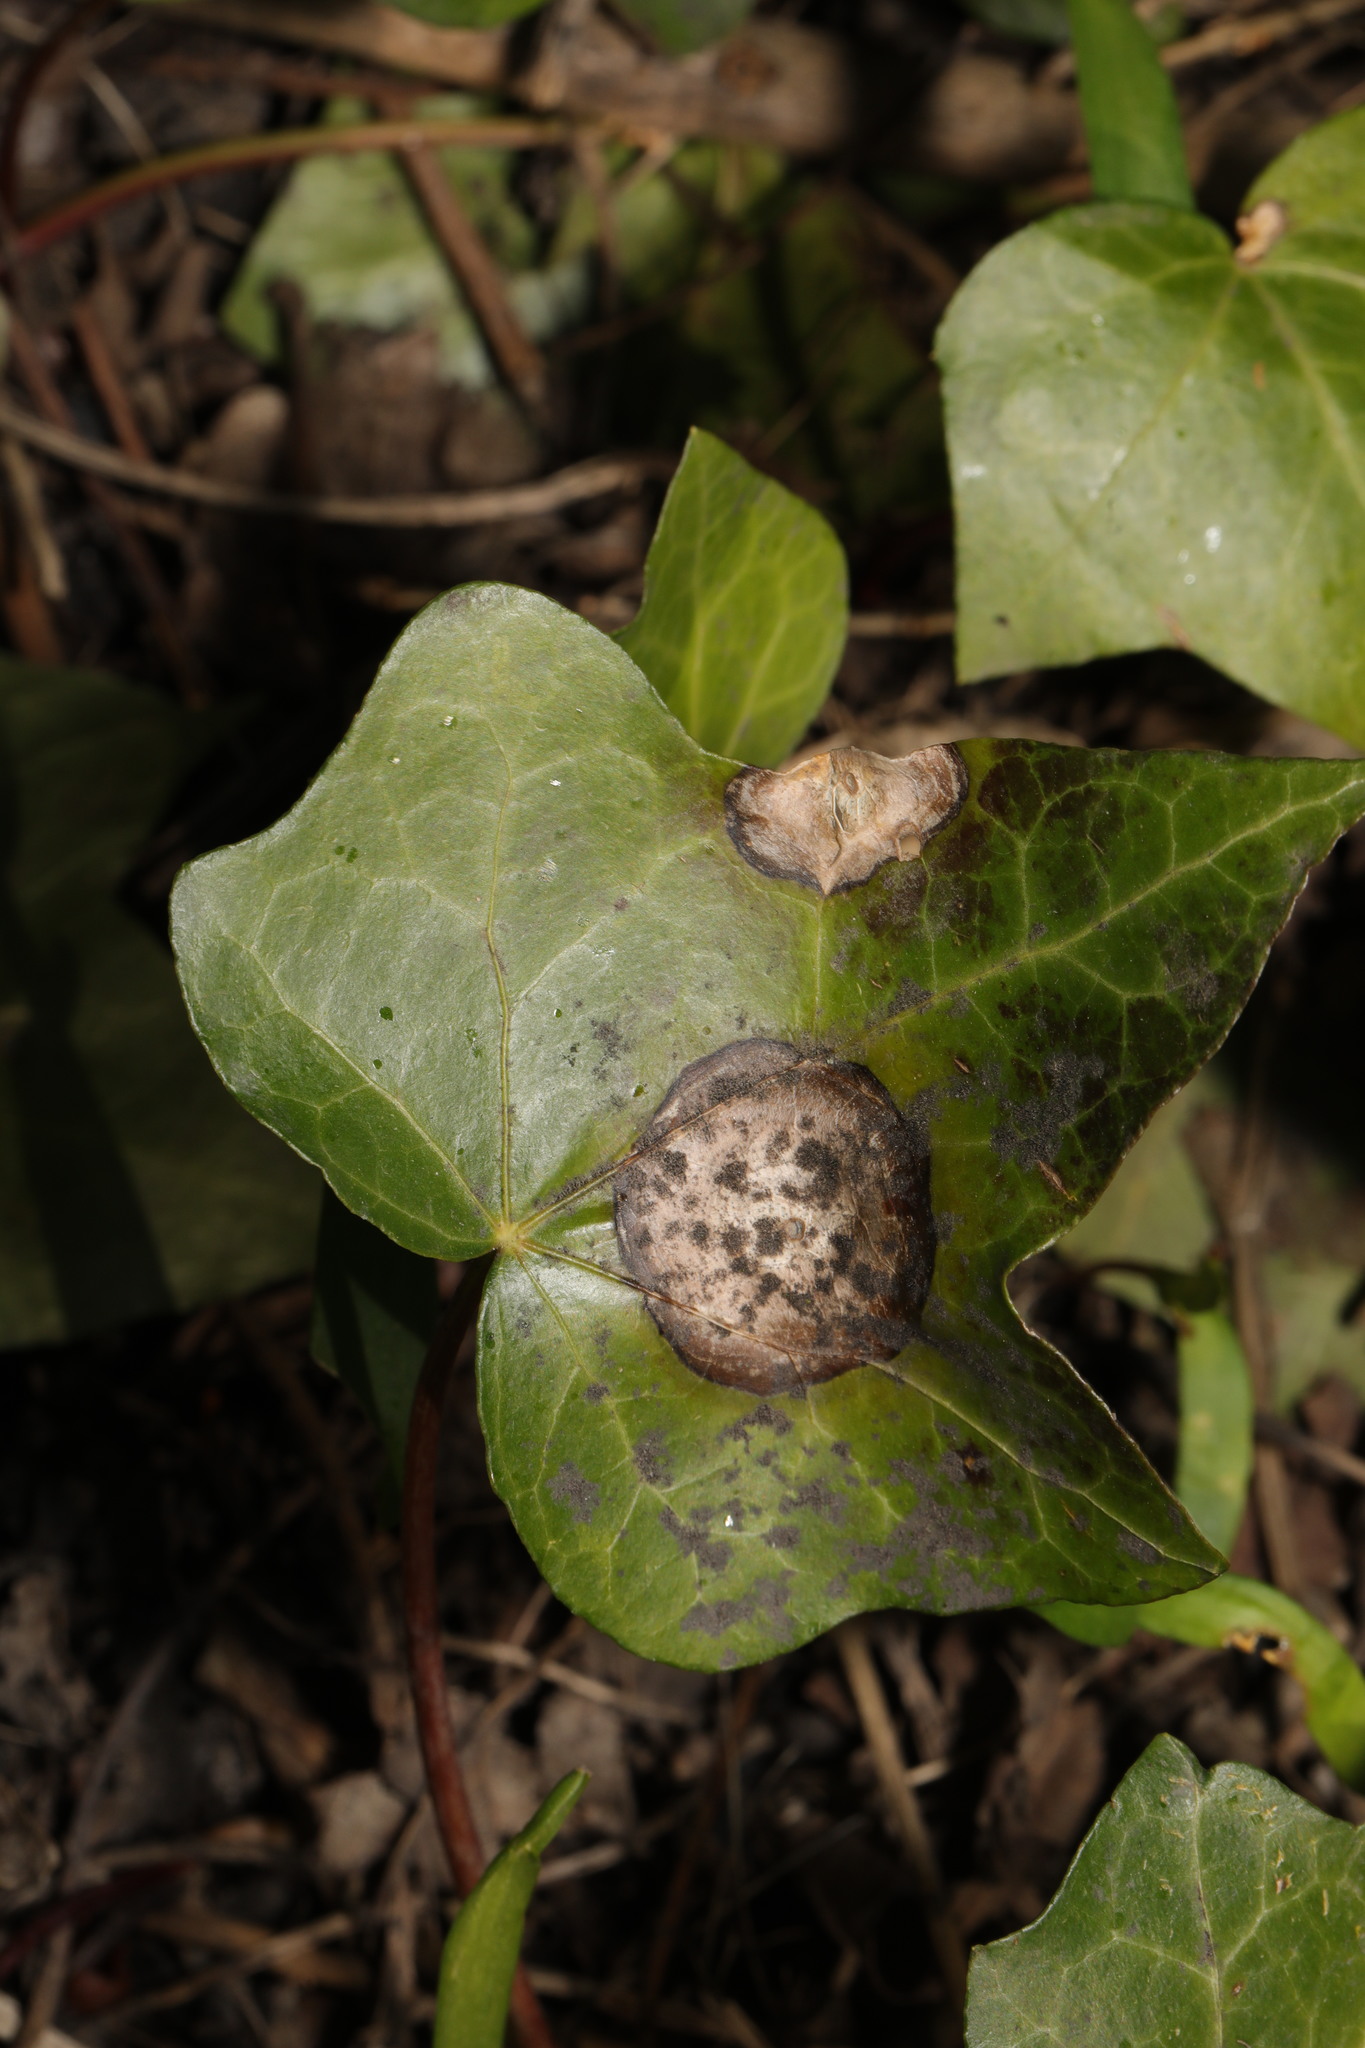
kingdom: Fungi
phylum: Ascomycota
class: Dothideomycetes
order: Pleosporales
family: Didymellaceae
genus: Boeremia
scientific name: Boeremia hedericola
